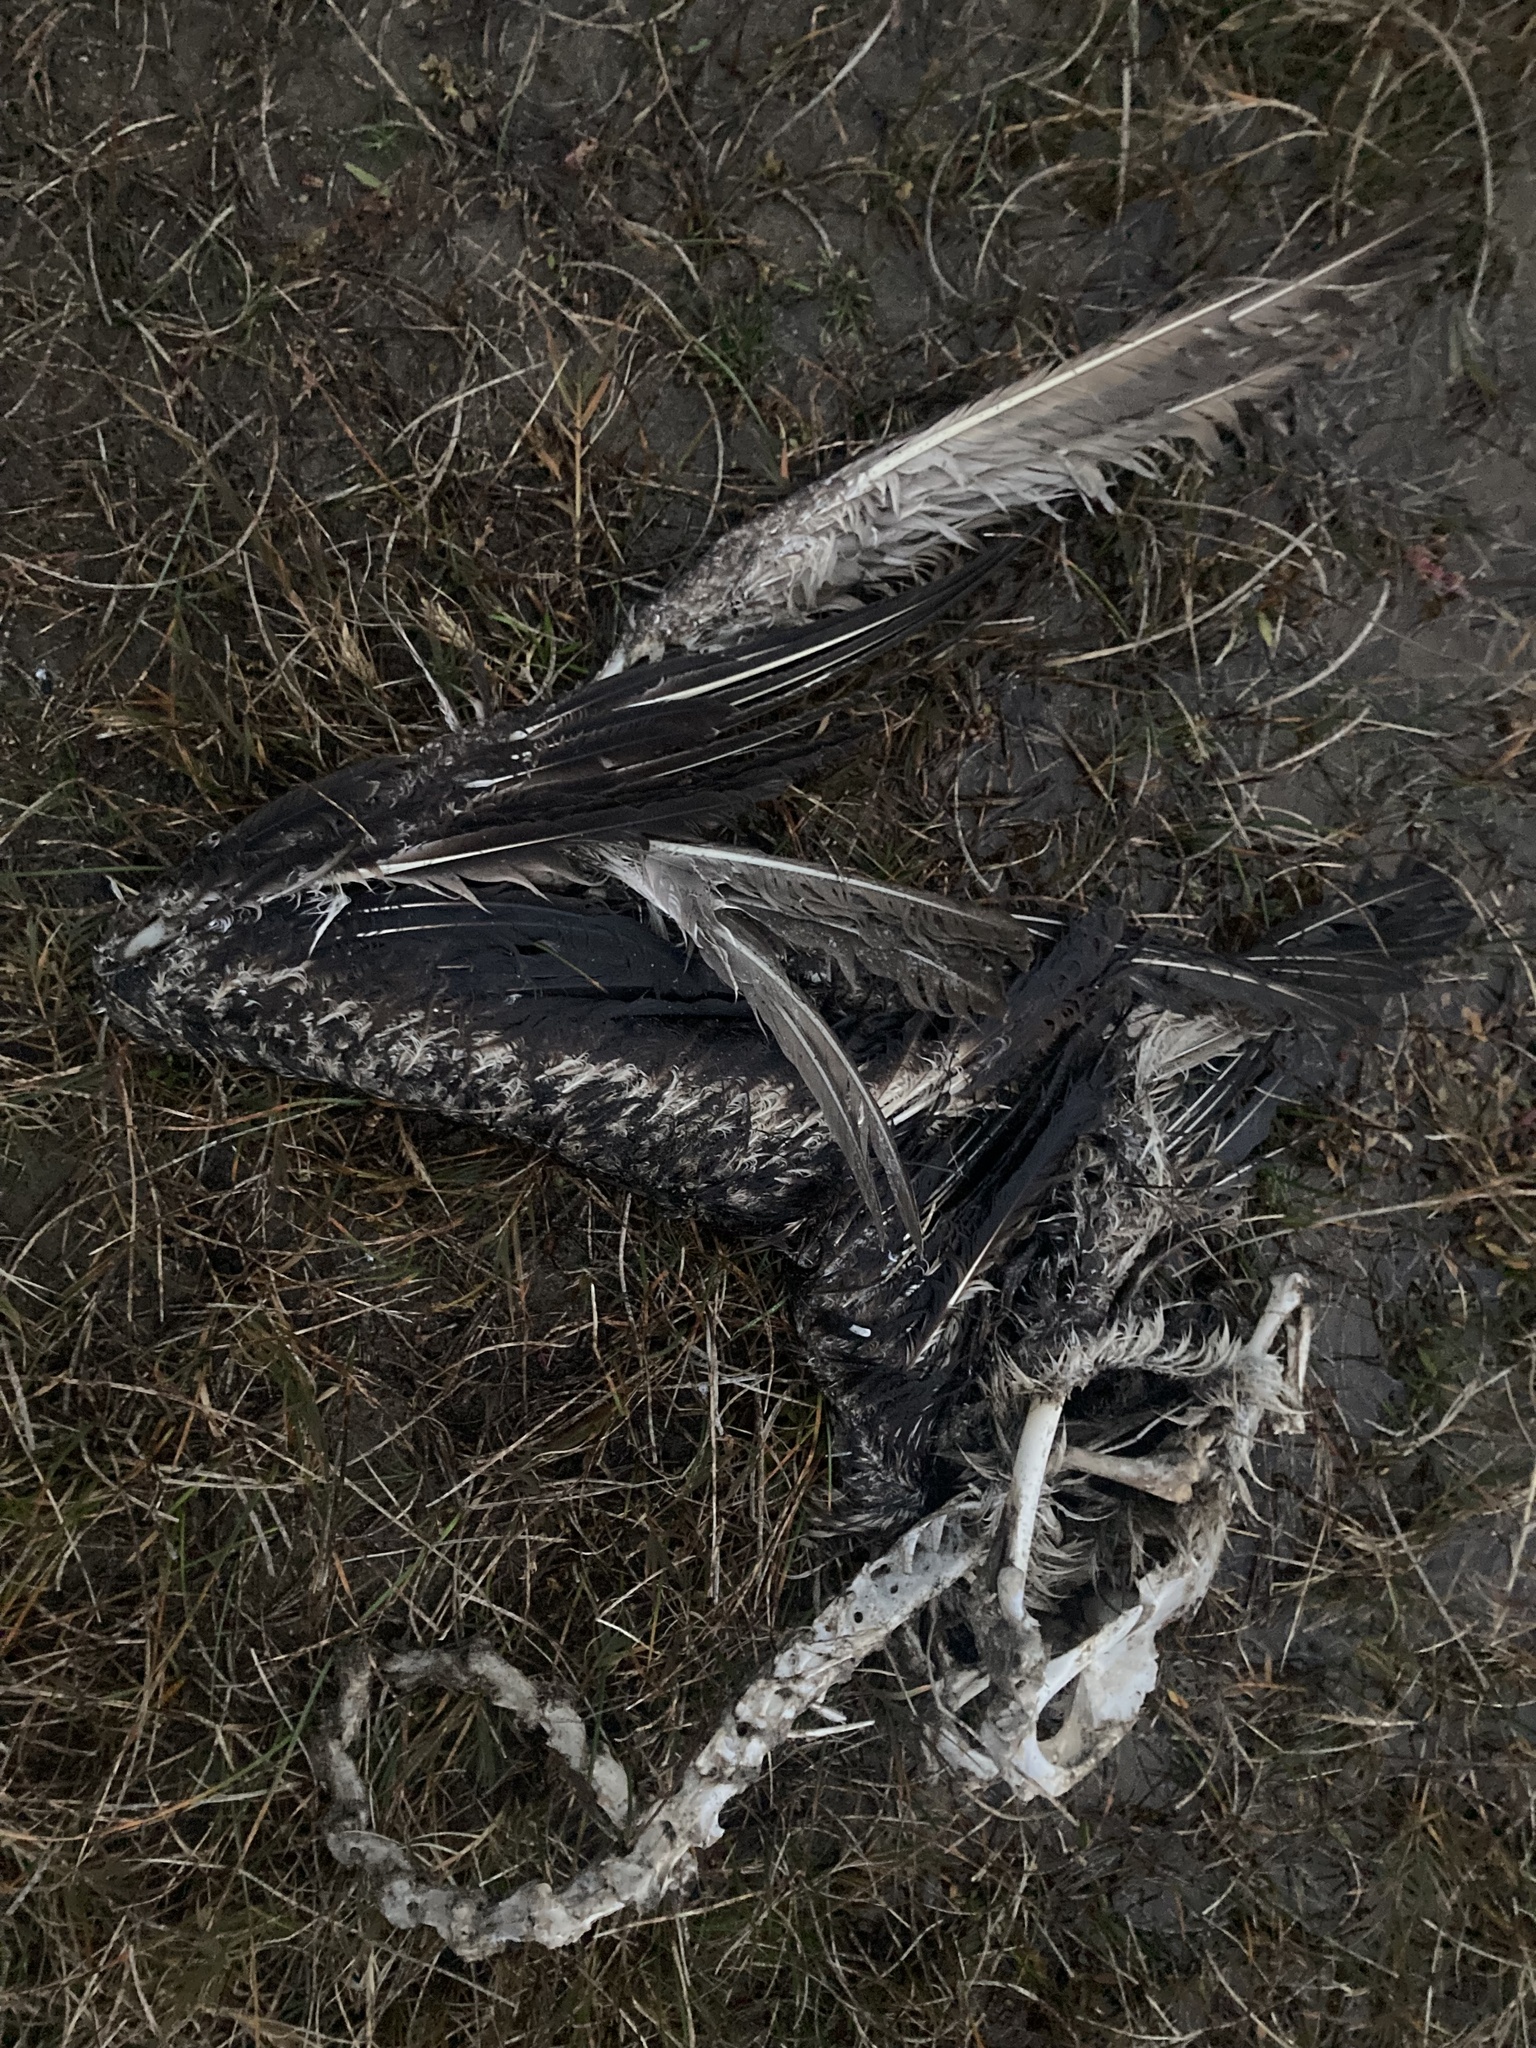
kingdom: Animalia
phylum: Chordata
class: Aves
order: Pelecaniformes
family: Ardeidae
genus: Ardea
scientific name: Ardea herodias
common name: Great blue heron
